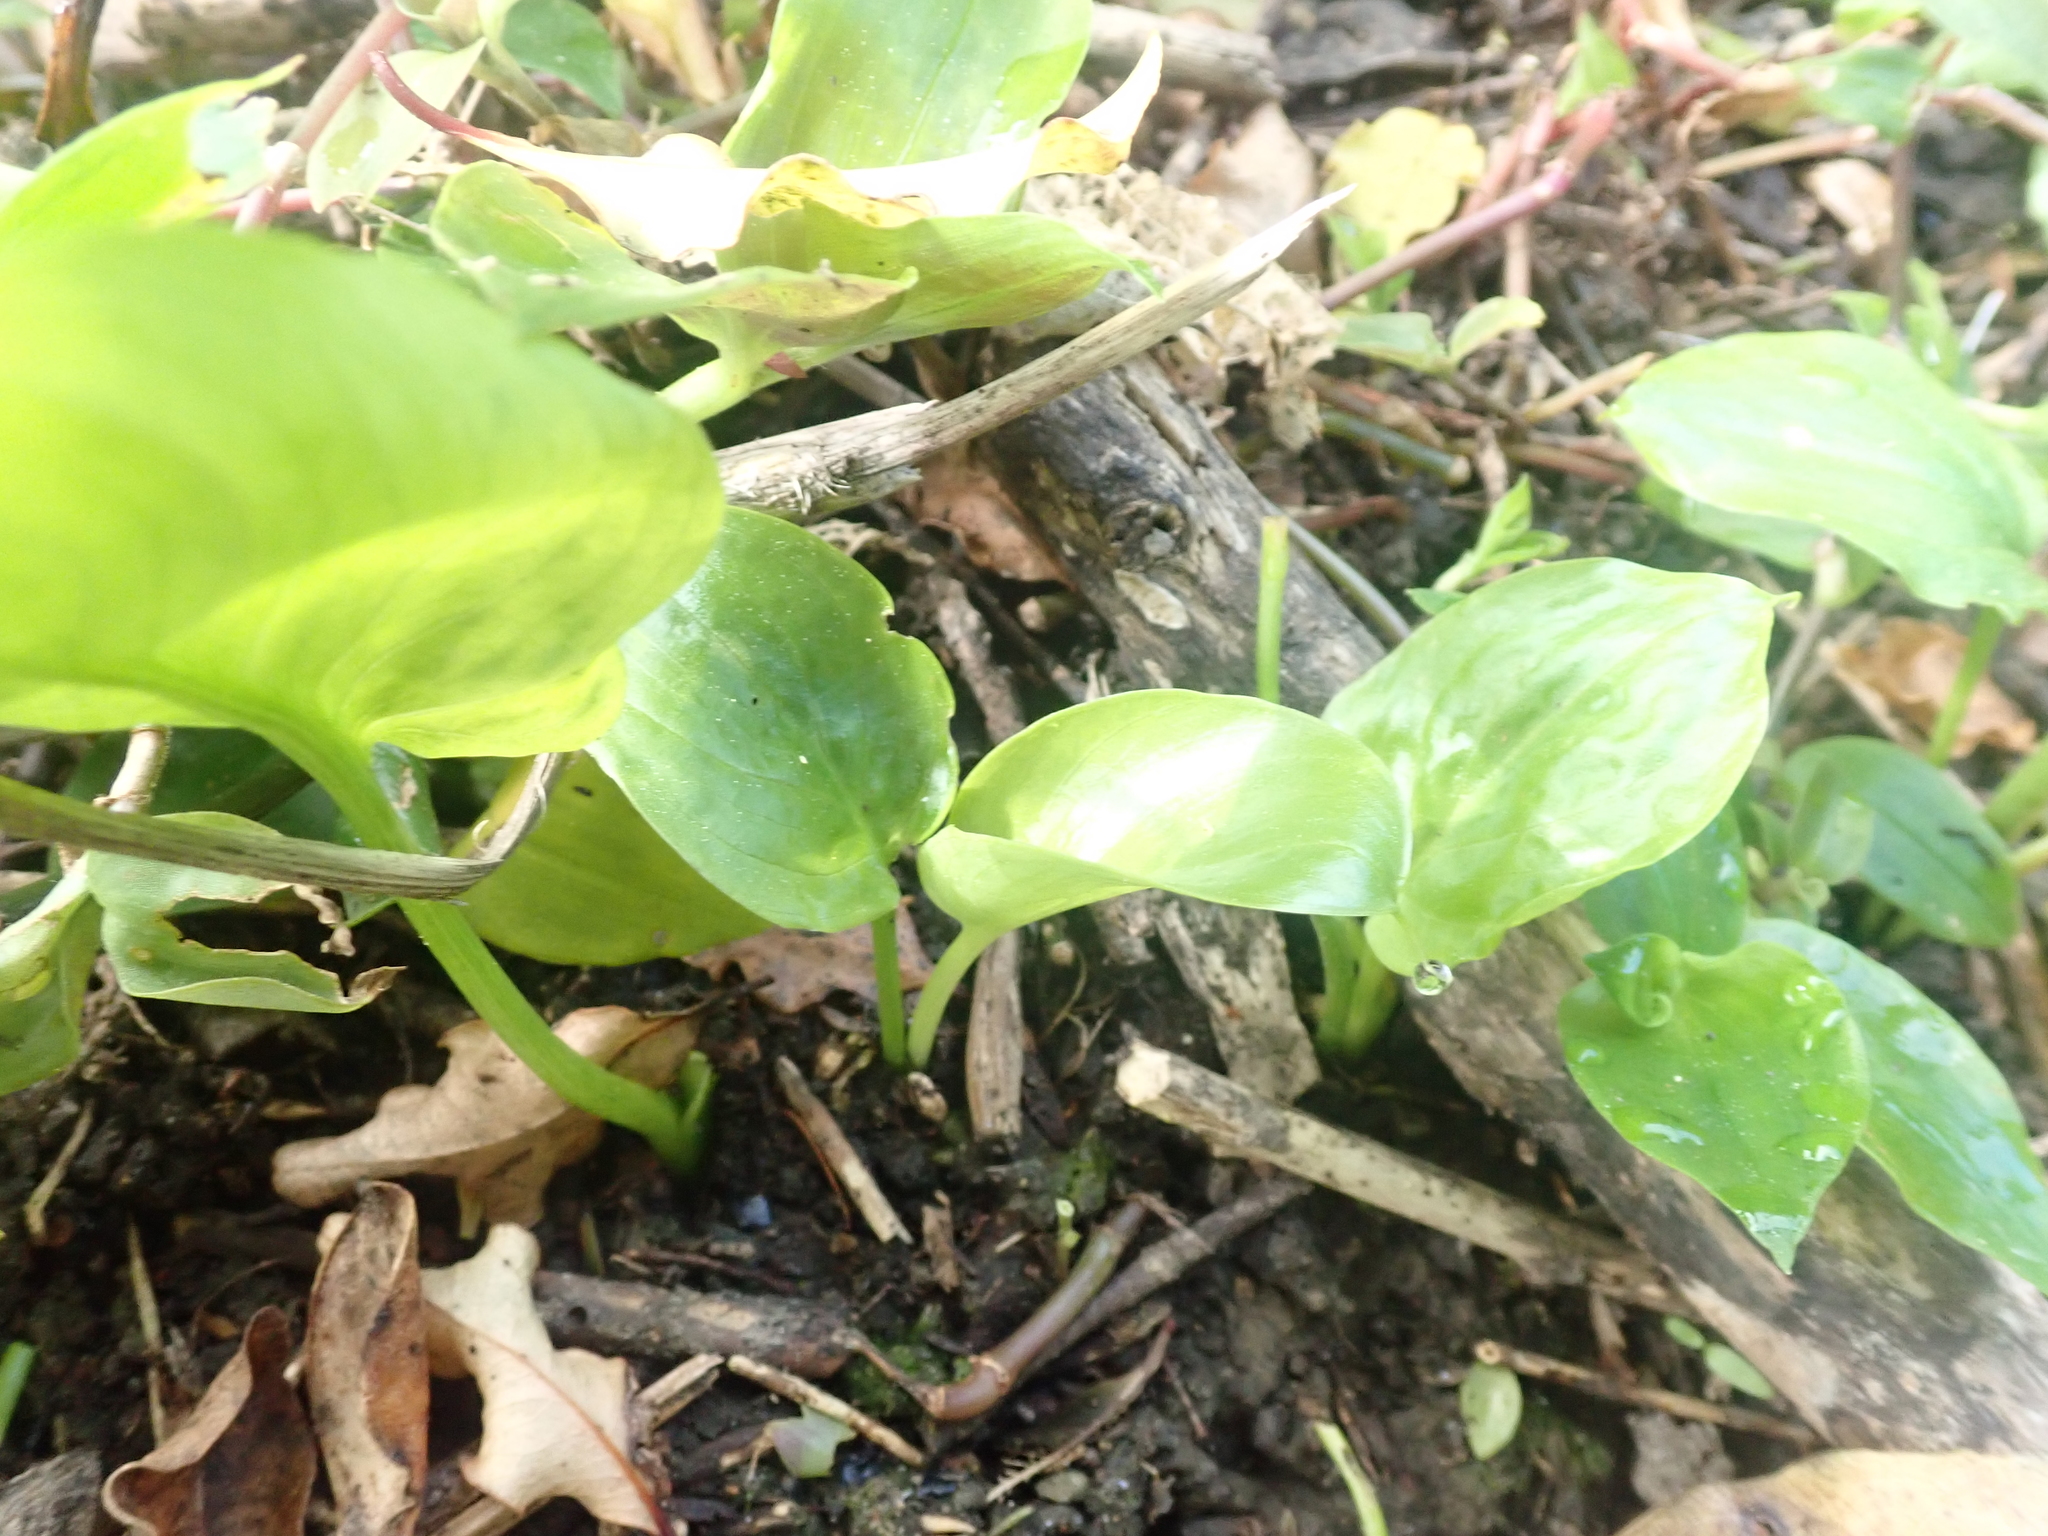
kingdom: Plantae
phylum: Tracheophyta
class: Liliopsida
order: Alismatales
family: Araceae
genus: Zantedeschia
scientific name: Zantedeschia aethiopica
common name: Altar-lily
